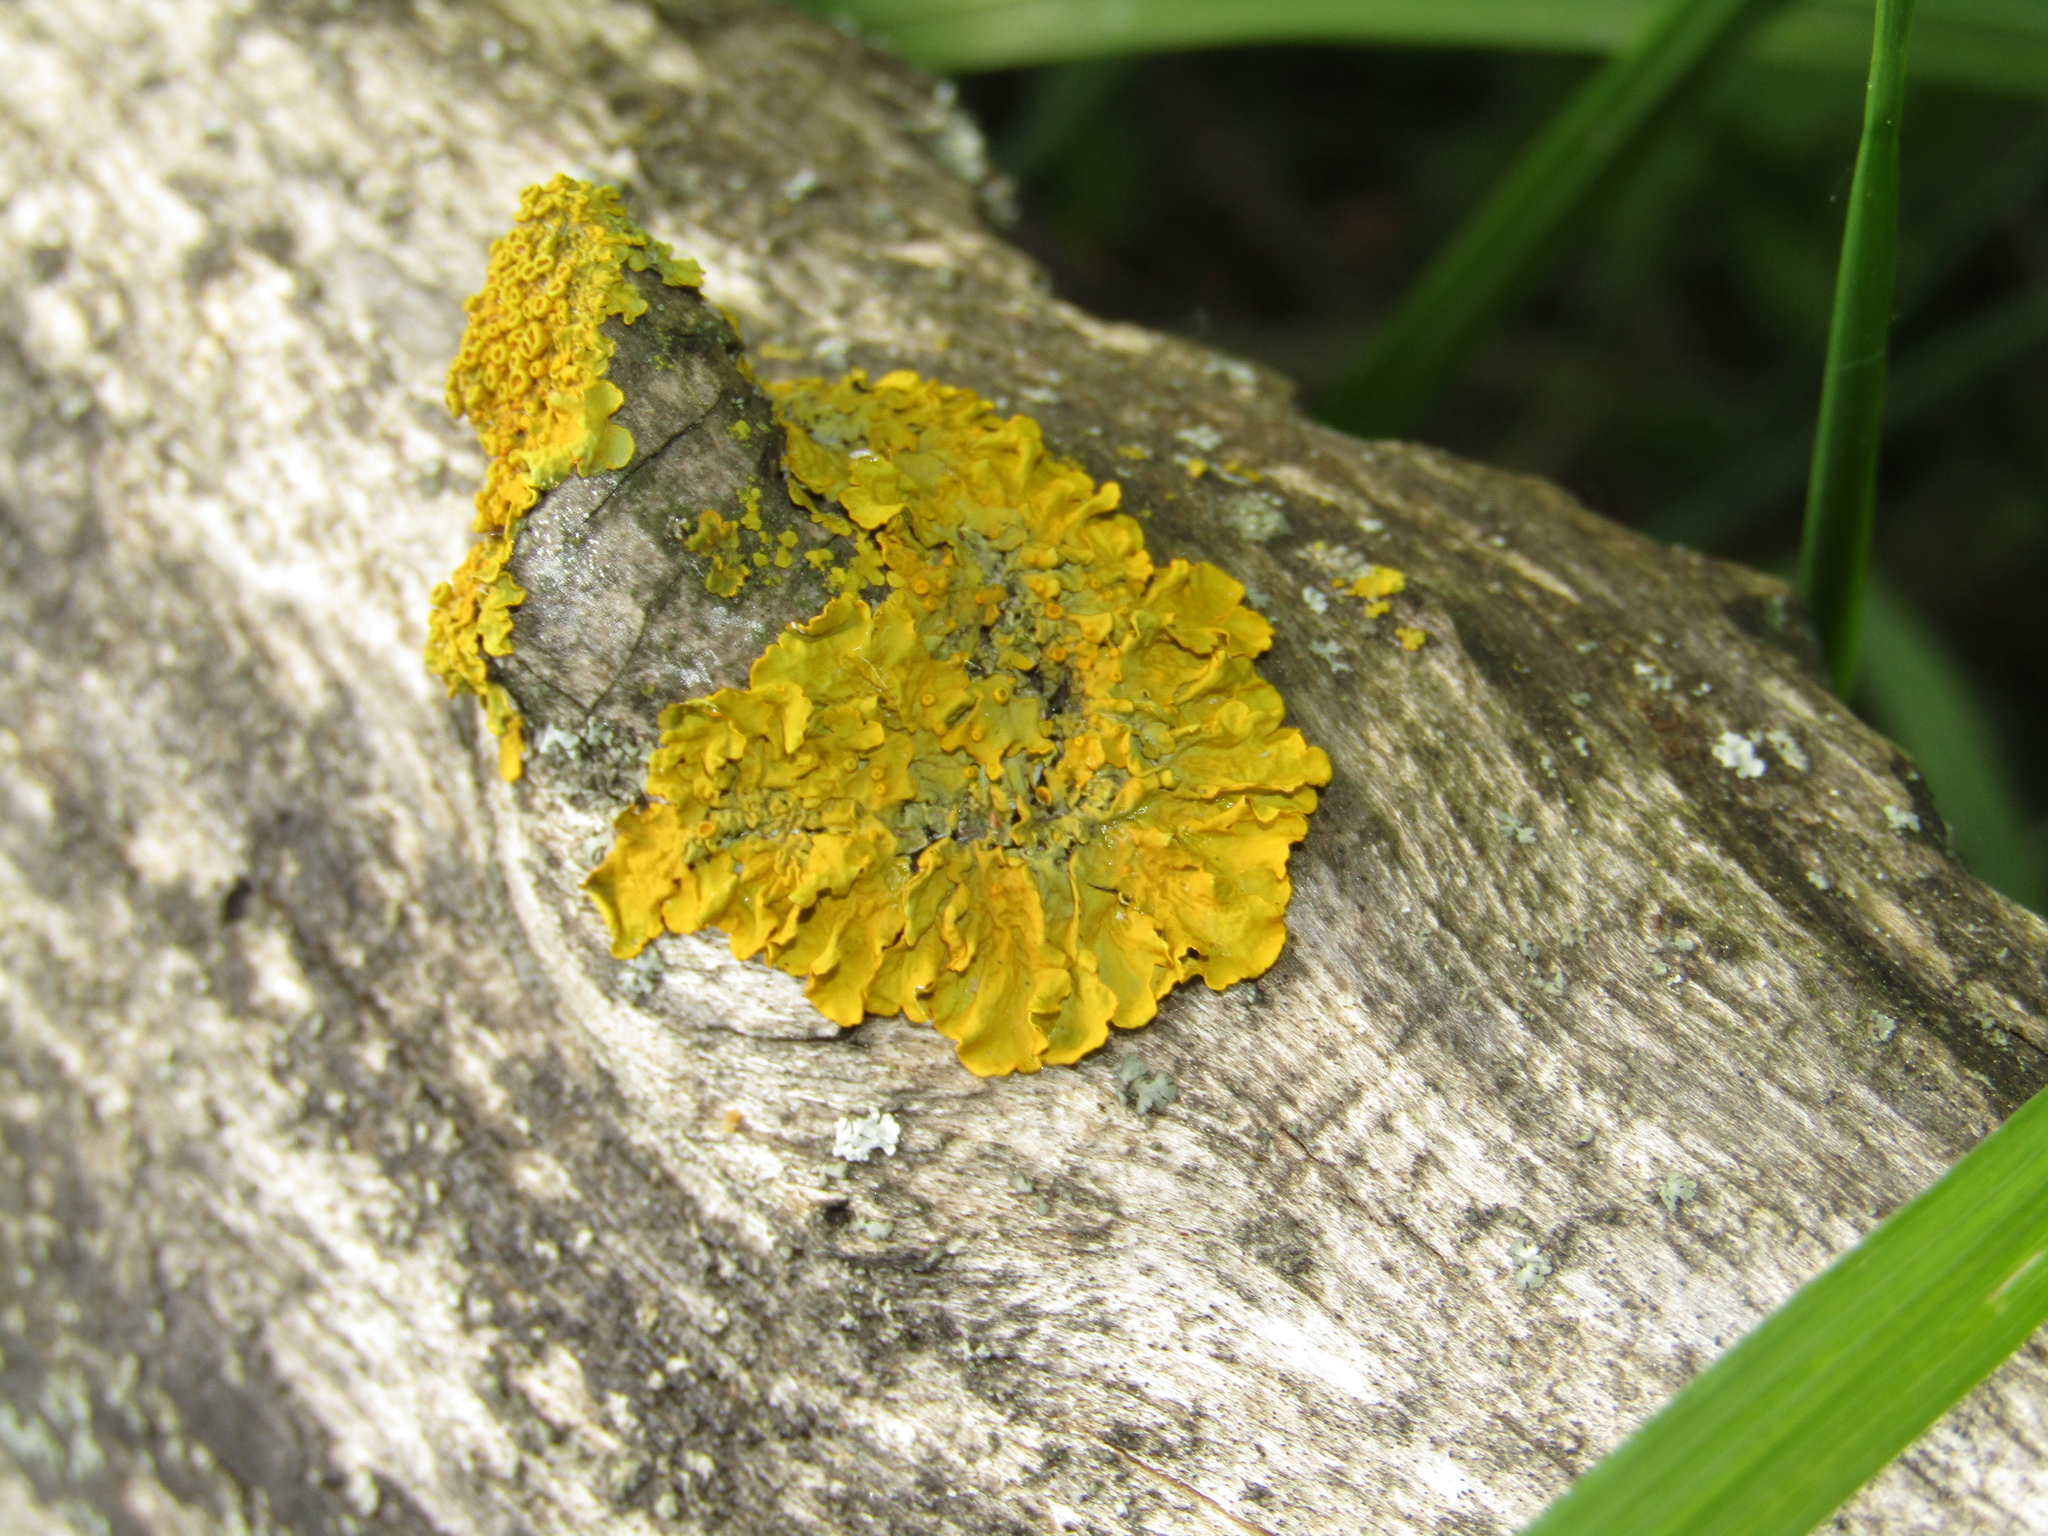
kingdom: Fungi
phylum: Ascomycota
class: Lecanoromycetes
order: Teloschistales
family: Teloschistaceae
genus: Xanthoria
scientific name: Xanthoria parietina
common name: Common orange lichen
